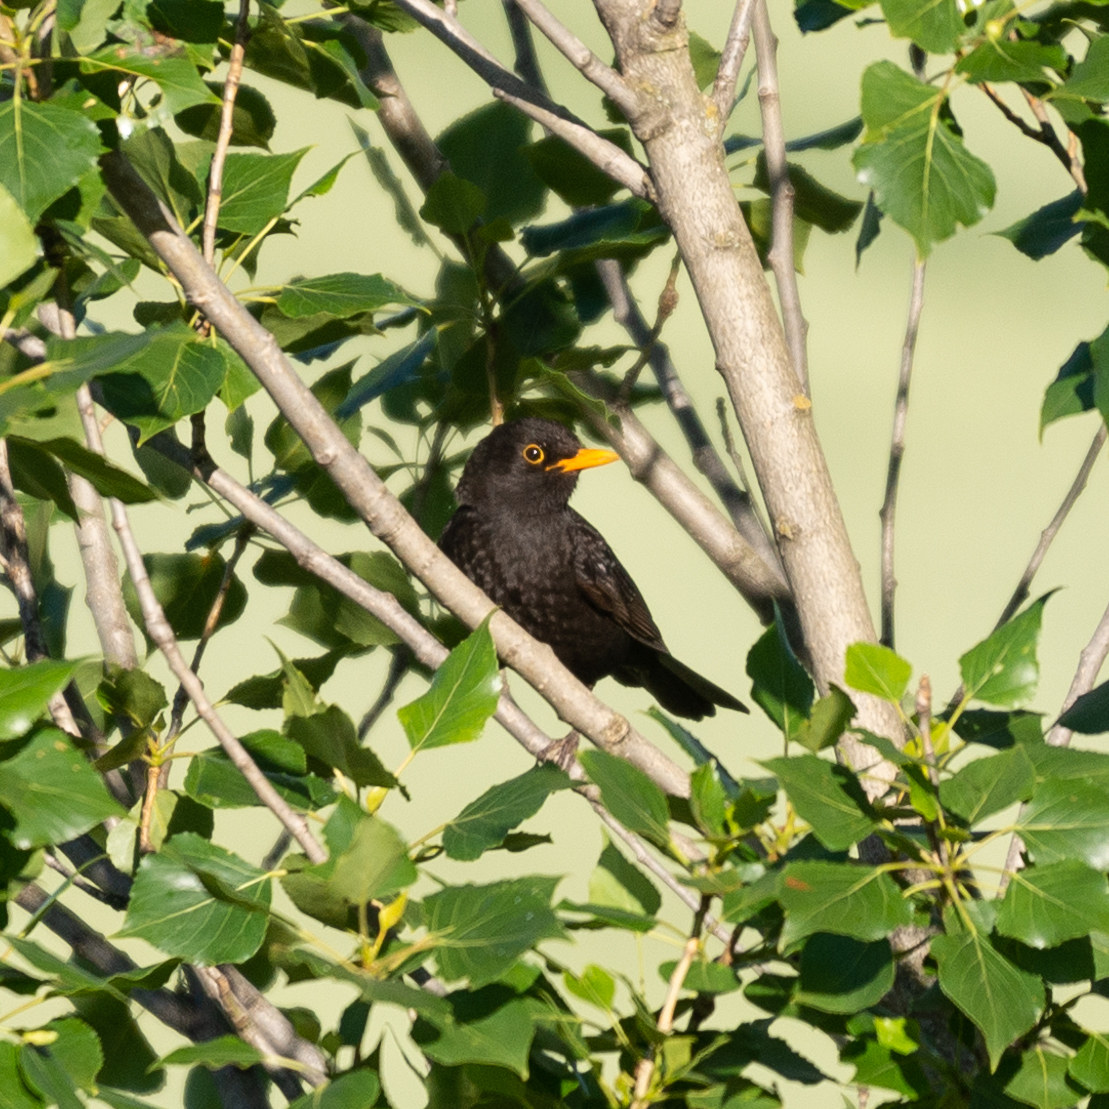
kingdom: Animalia
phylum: Chordata
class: Aves
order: Passeriformes
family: Turdidae
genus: Turdus
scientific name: Turdus merula
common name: Common blackbird
